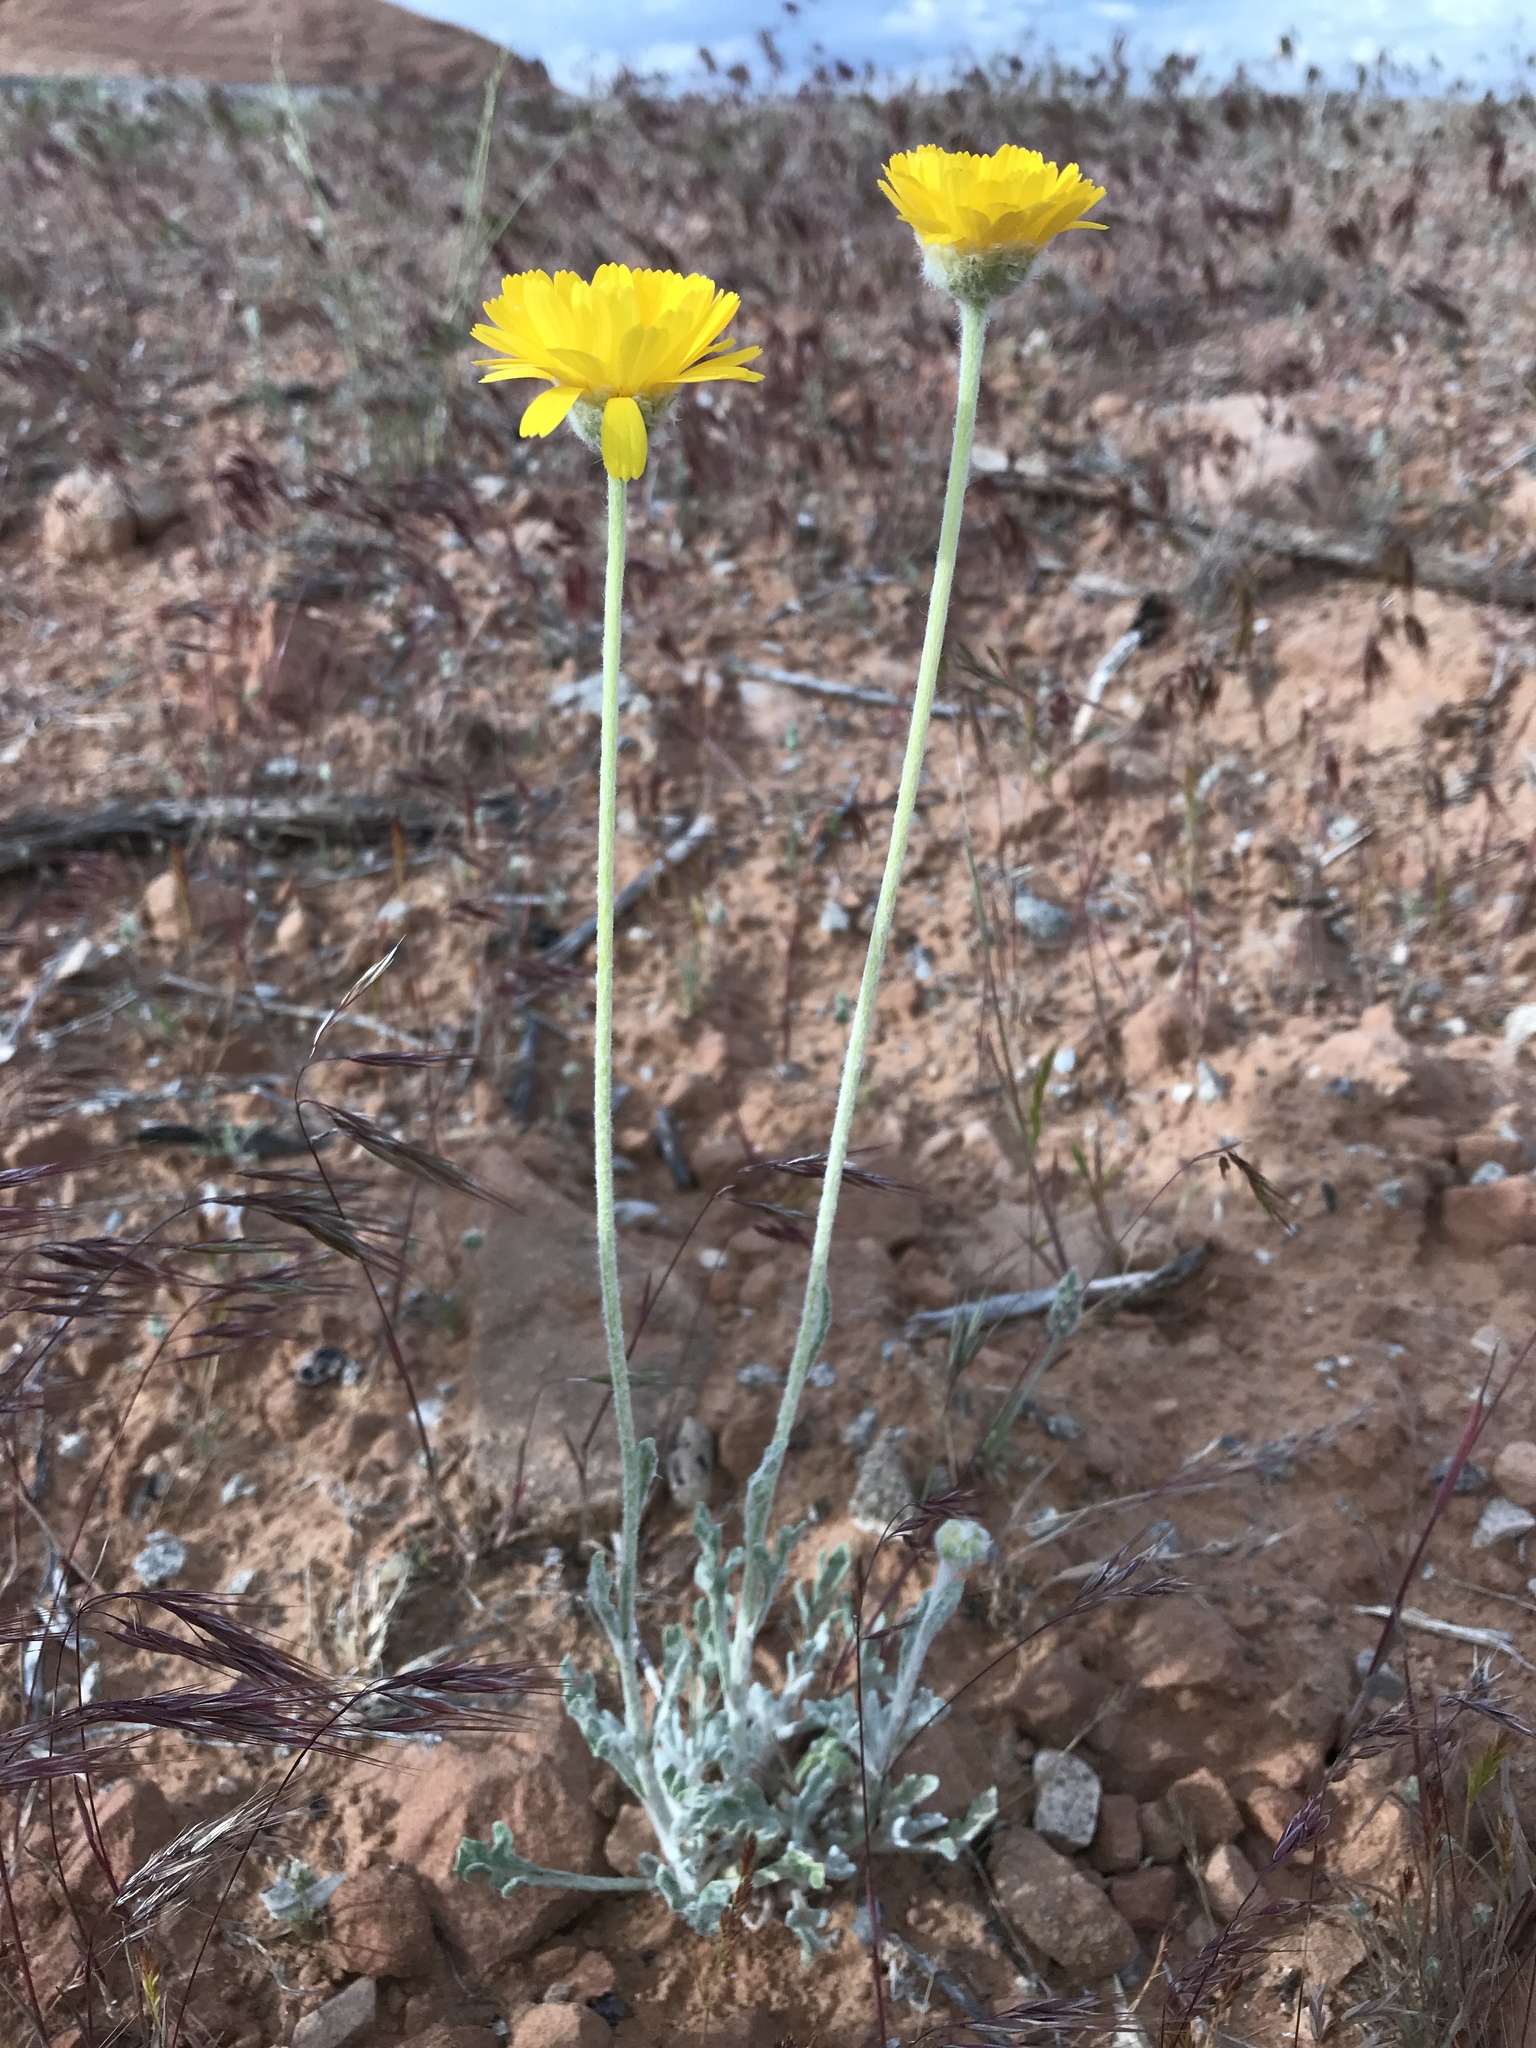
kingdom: Plantae
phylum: Tracheophyta
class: Magnoliopsida
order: Asterales
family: Asteraceae
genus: Baileya
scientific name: Baileya multiradiata
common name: Desert-marigold
